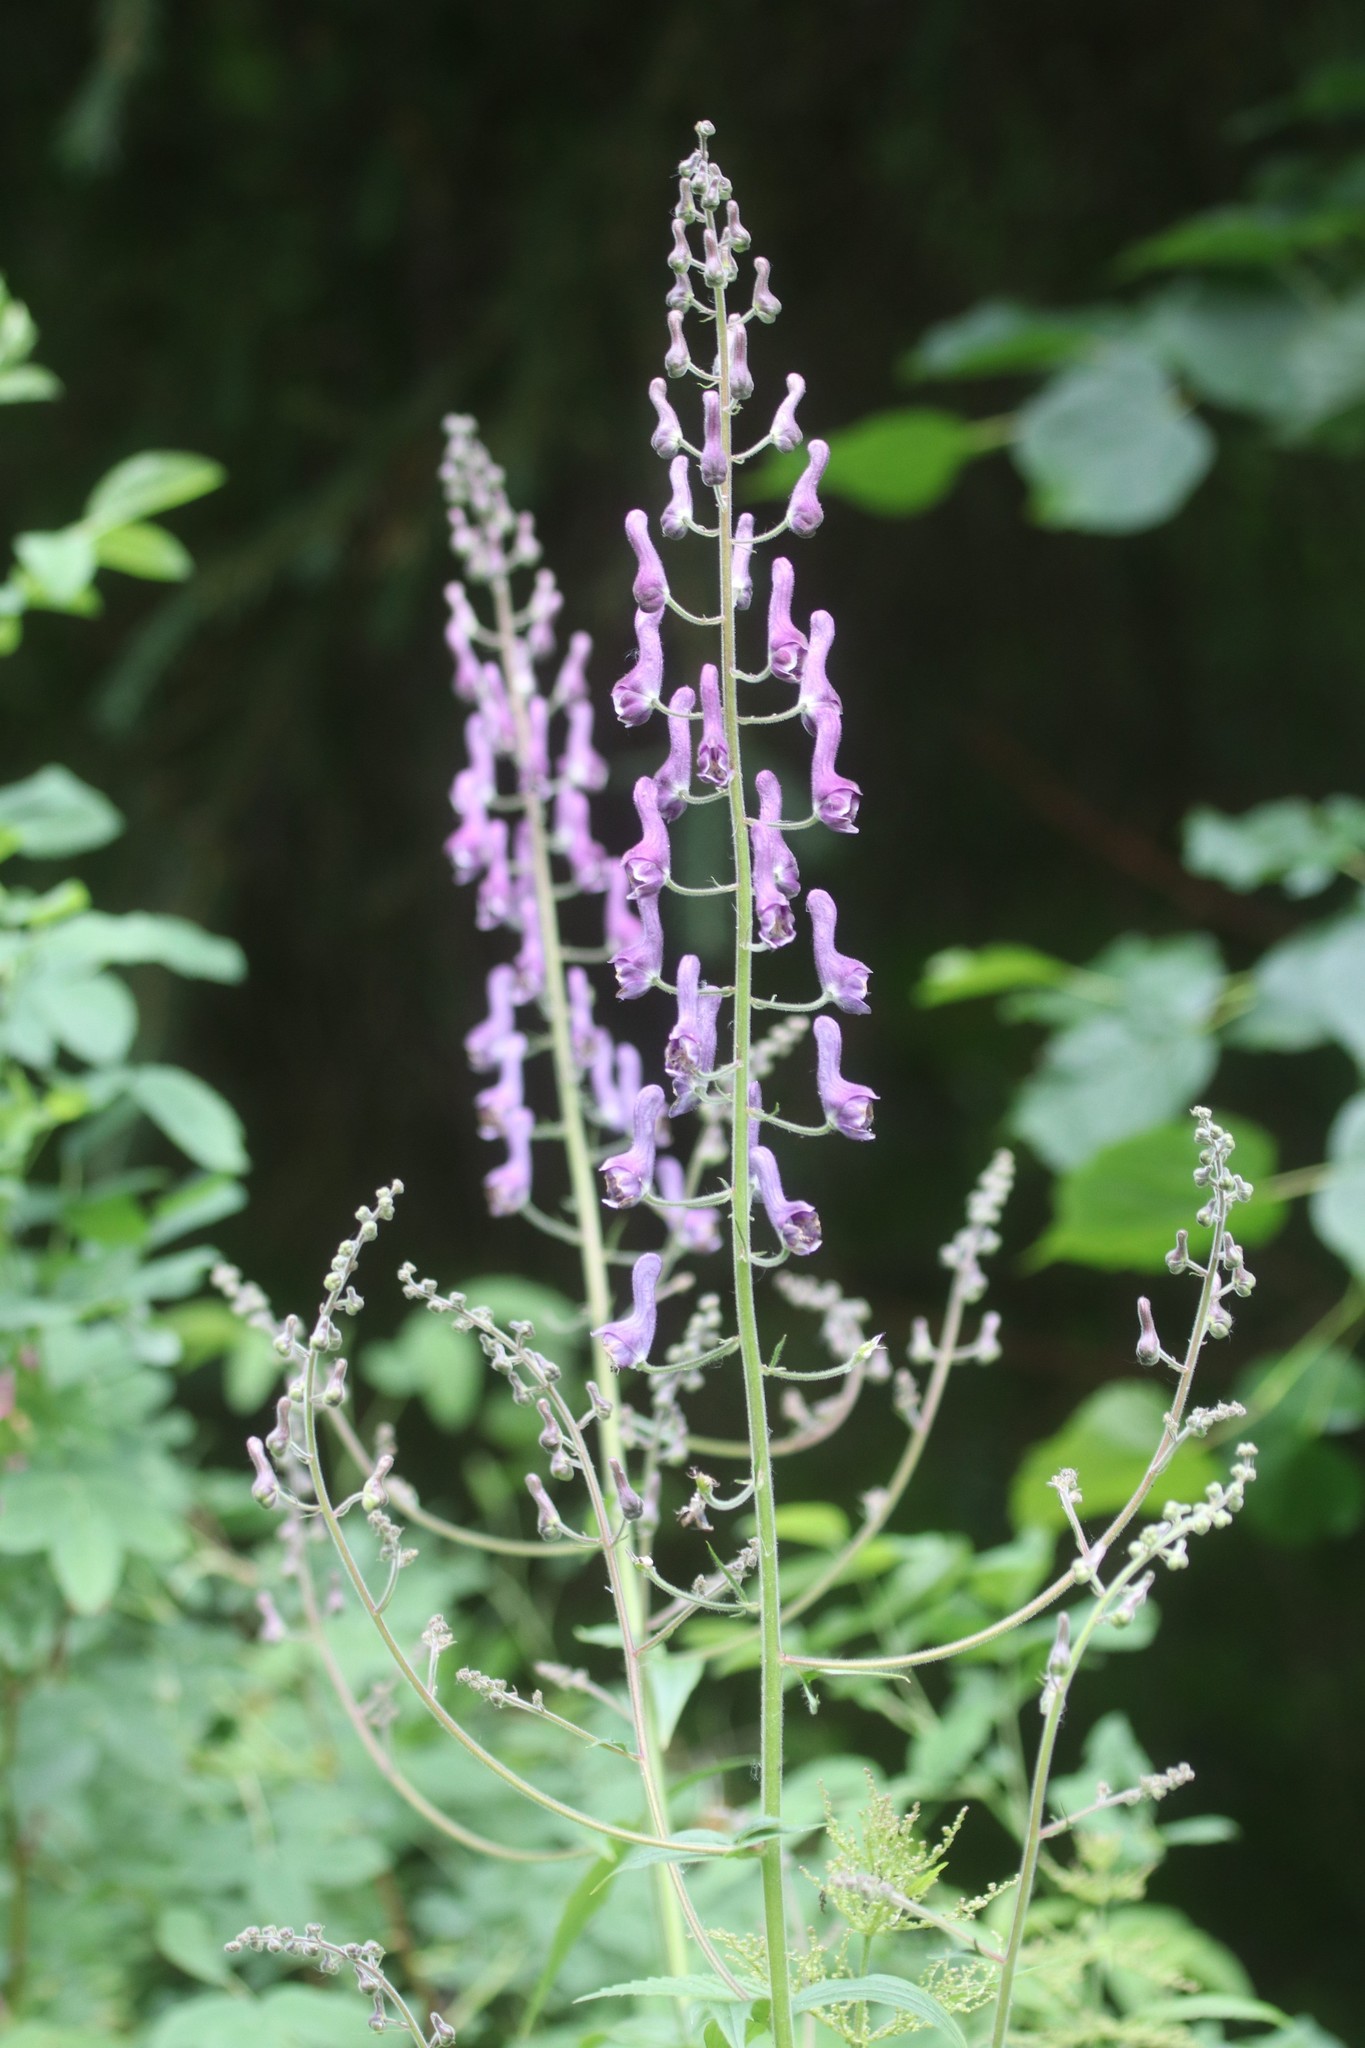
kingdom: Plantae
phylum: Tracheophyta
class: Magnoliopsida
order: Ranunculales
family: Ranunculaceae
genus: Aconitum
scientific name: Aconitum septentrionale
